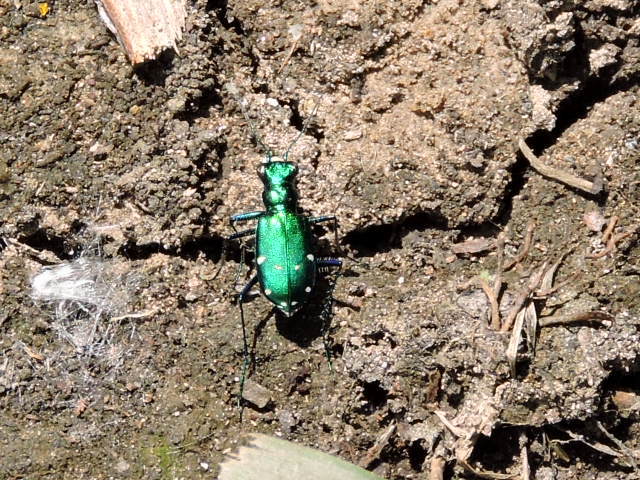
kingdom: Animalia
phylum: Arthropoda
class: Insecta
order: Coleoptera
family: Carabidae
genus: Cicindela
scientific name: Cicindela sexguttata
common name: Six-spotted tiger beetle
